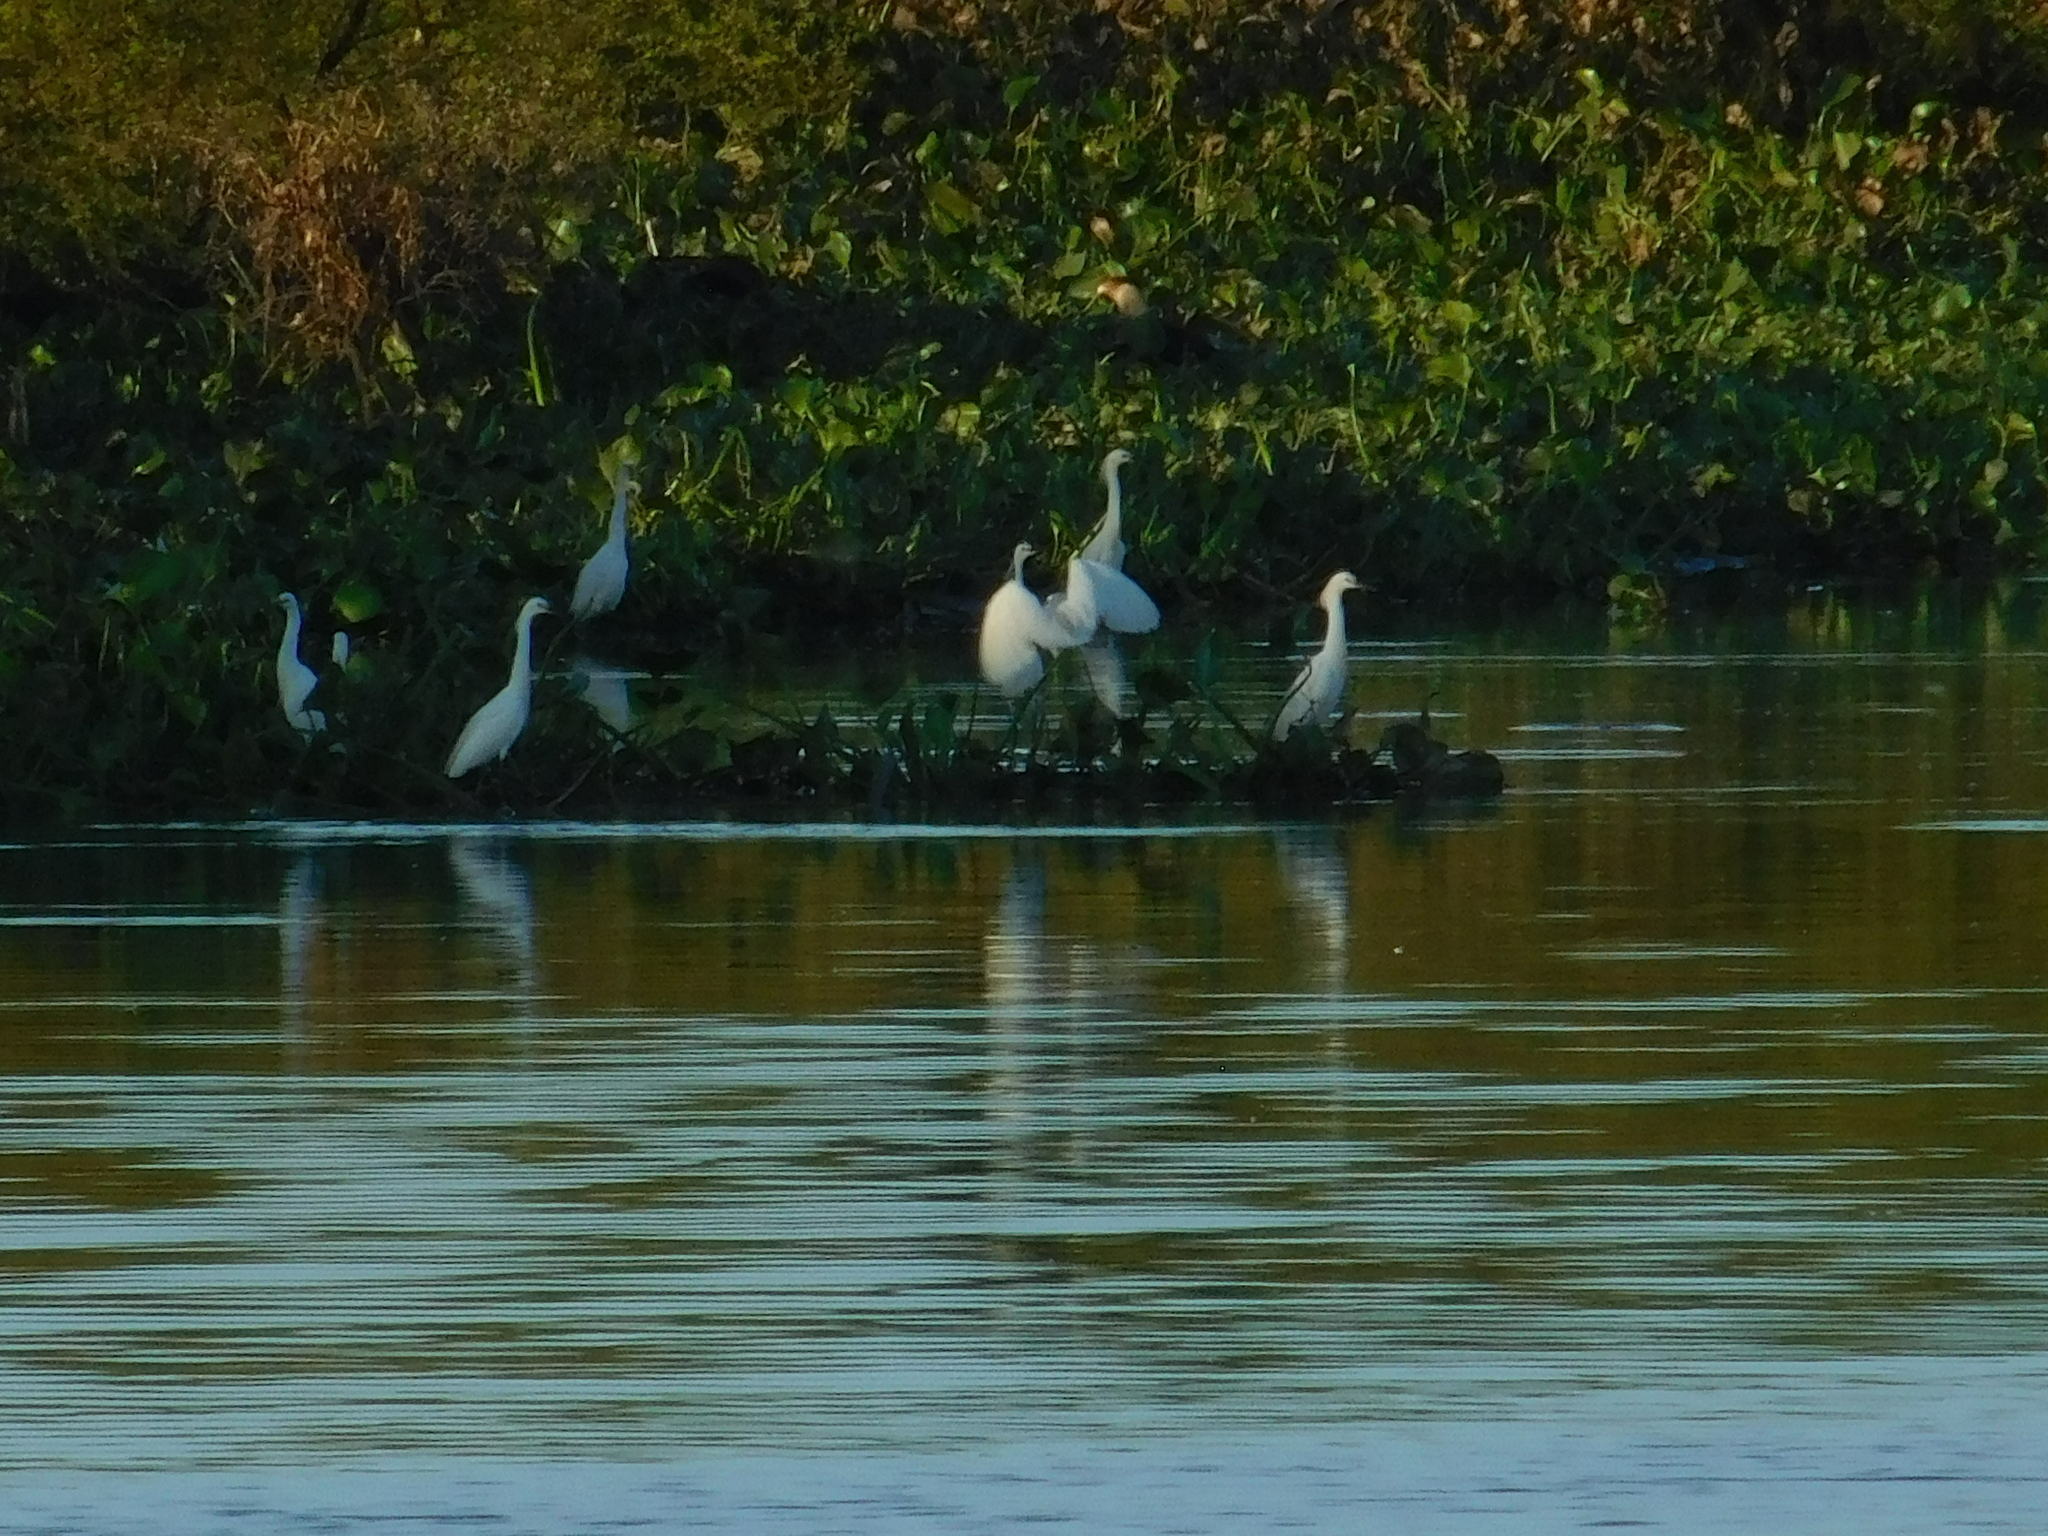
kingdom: Animalia
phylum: Chordata
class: Aves
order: Pelecaniformes
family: Ardeidae
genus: Egretta
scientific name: Egretta thula
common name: Snowy egret
